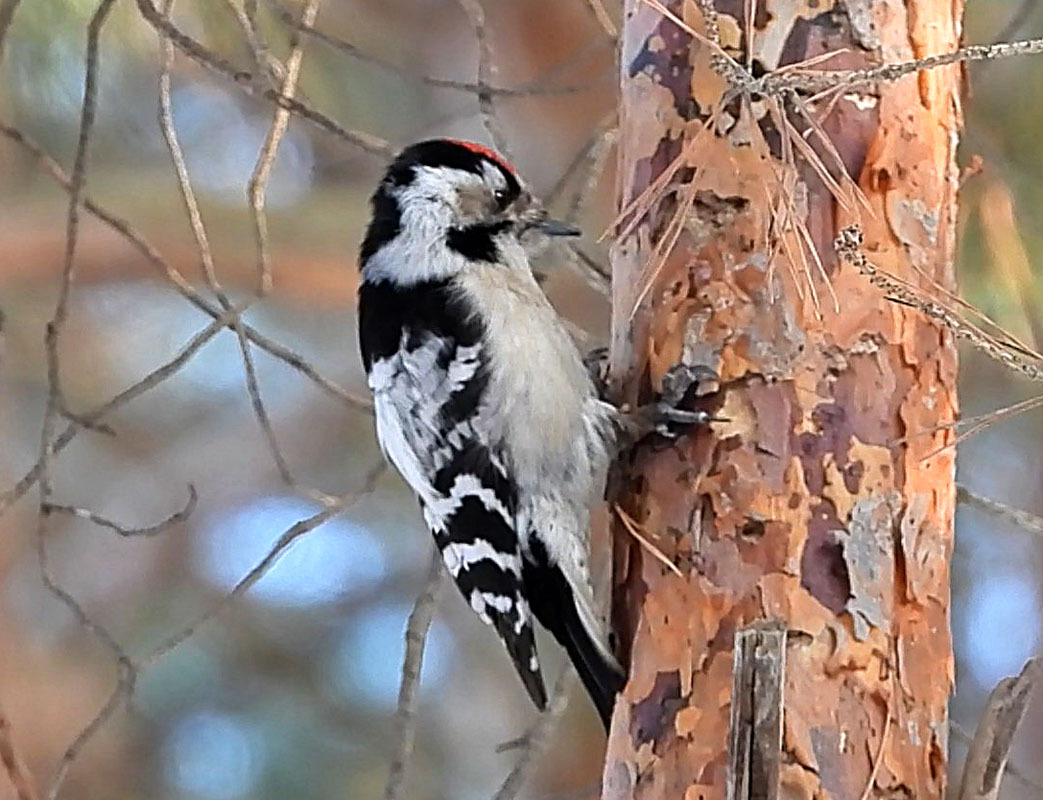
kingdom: Animalia
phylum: Chordata
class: Aves
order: Piciformes
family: Picidae
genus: Dryobates
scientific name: Dryobates minor
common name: Lesser spotted woodpecker
